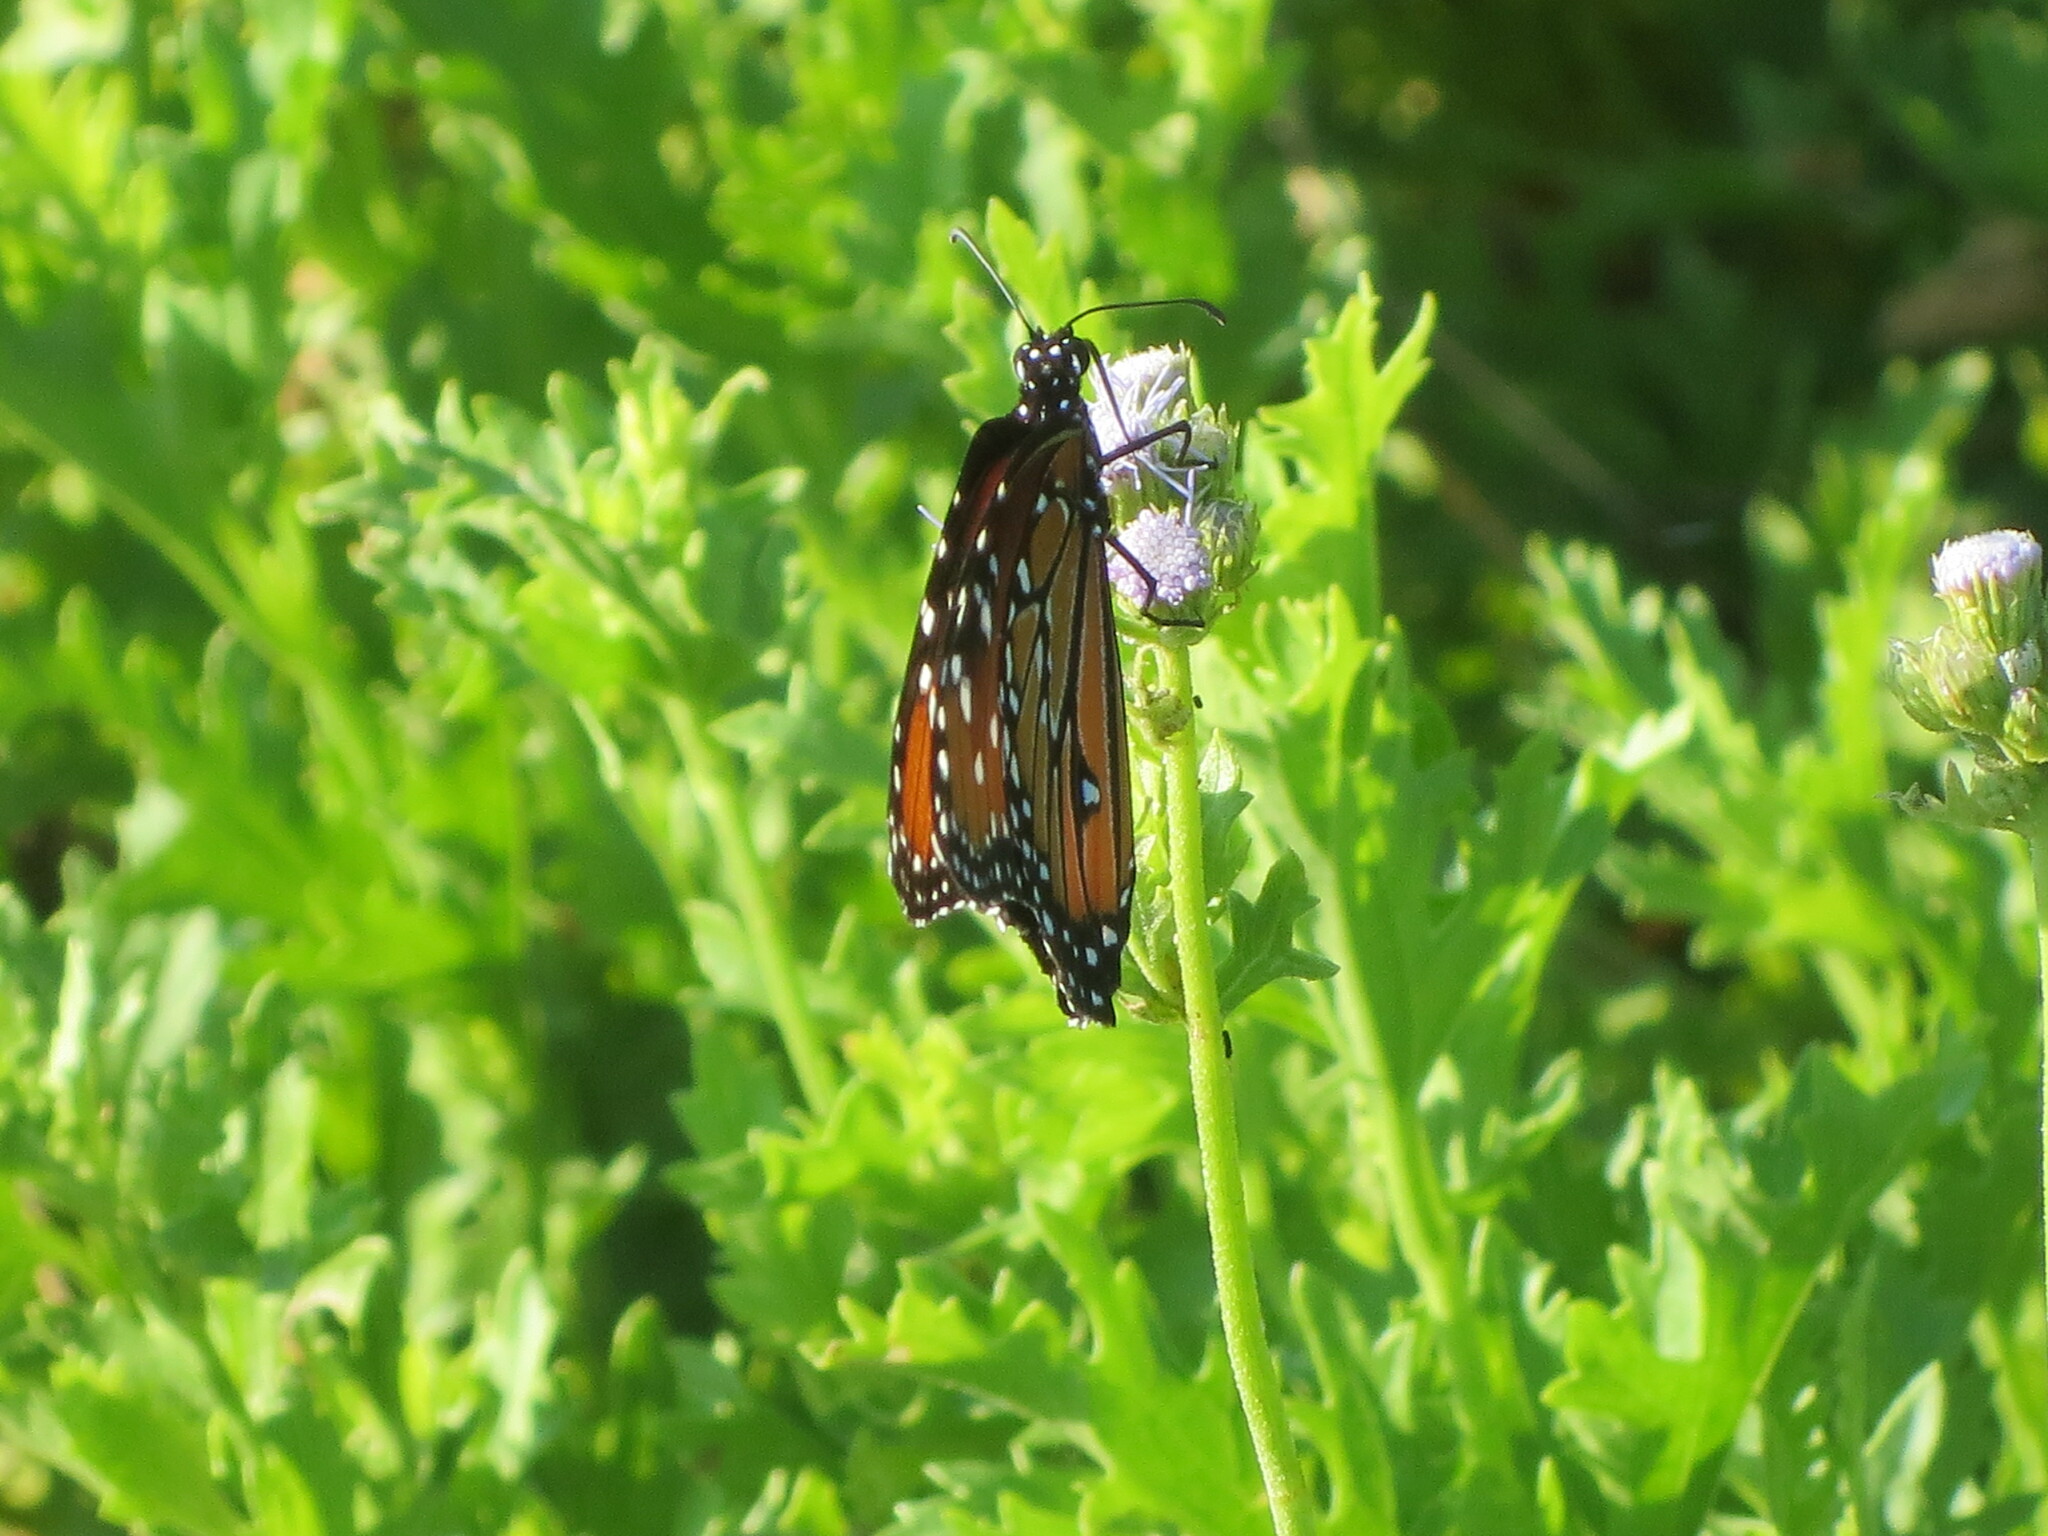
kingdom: Animalia
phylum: Arthropoda
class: Insecta
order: Lepidoptera
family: Nymphalidae
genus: Danaus
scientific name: Danaus gilippus
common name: Queen
